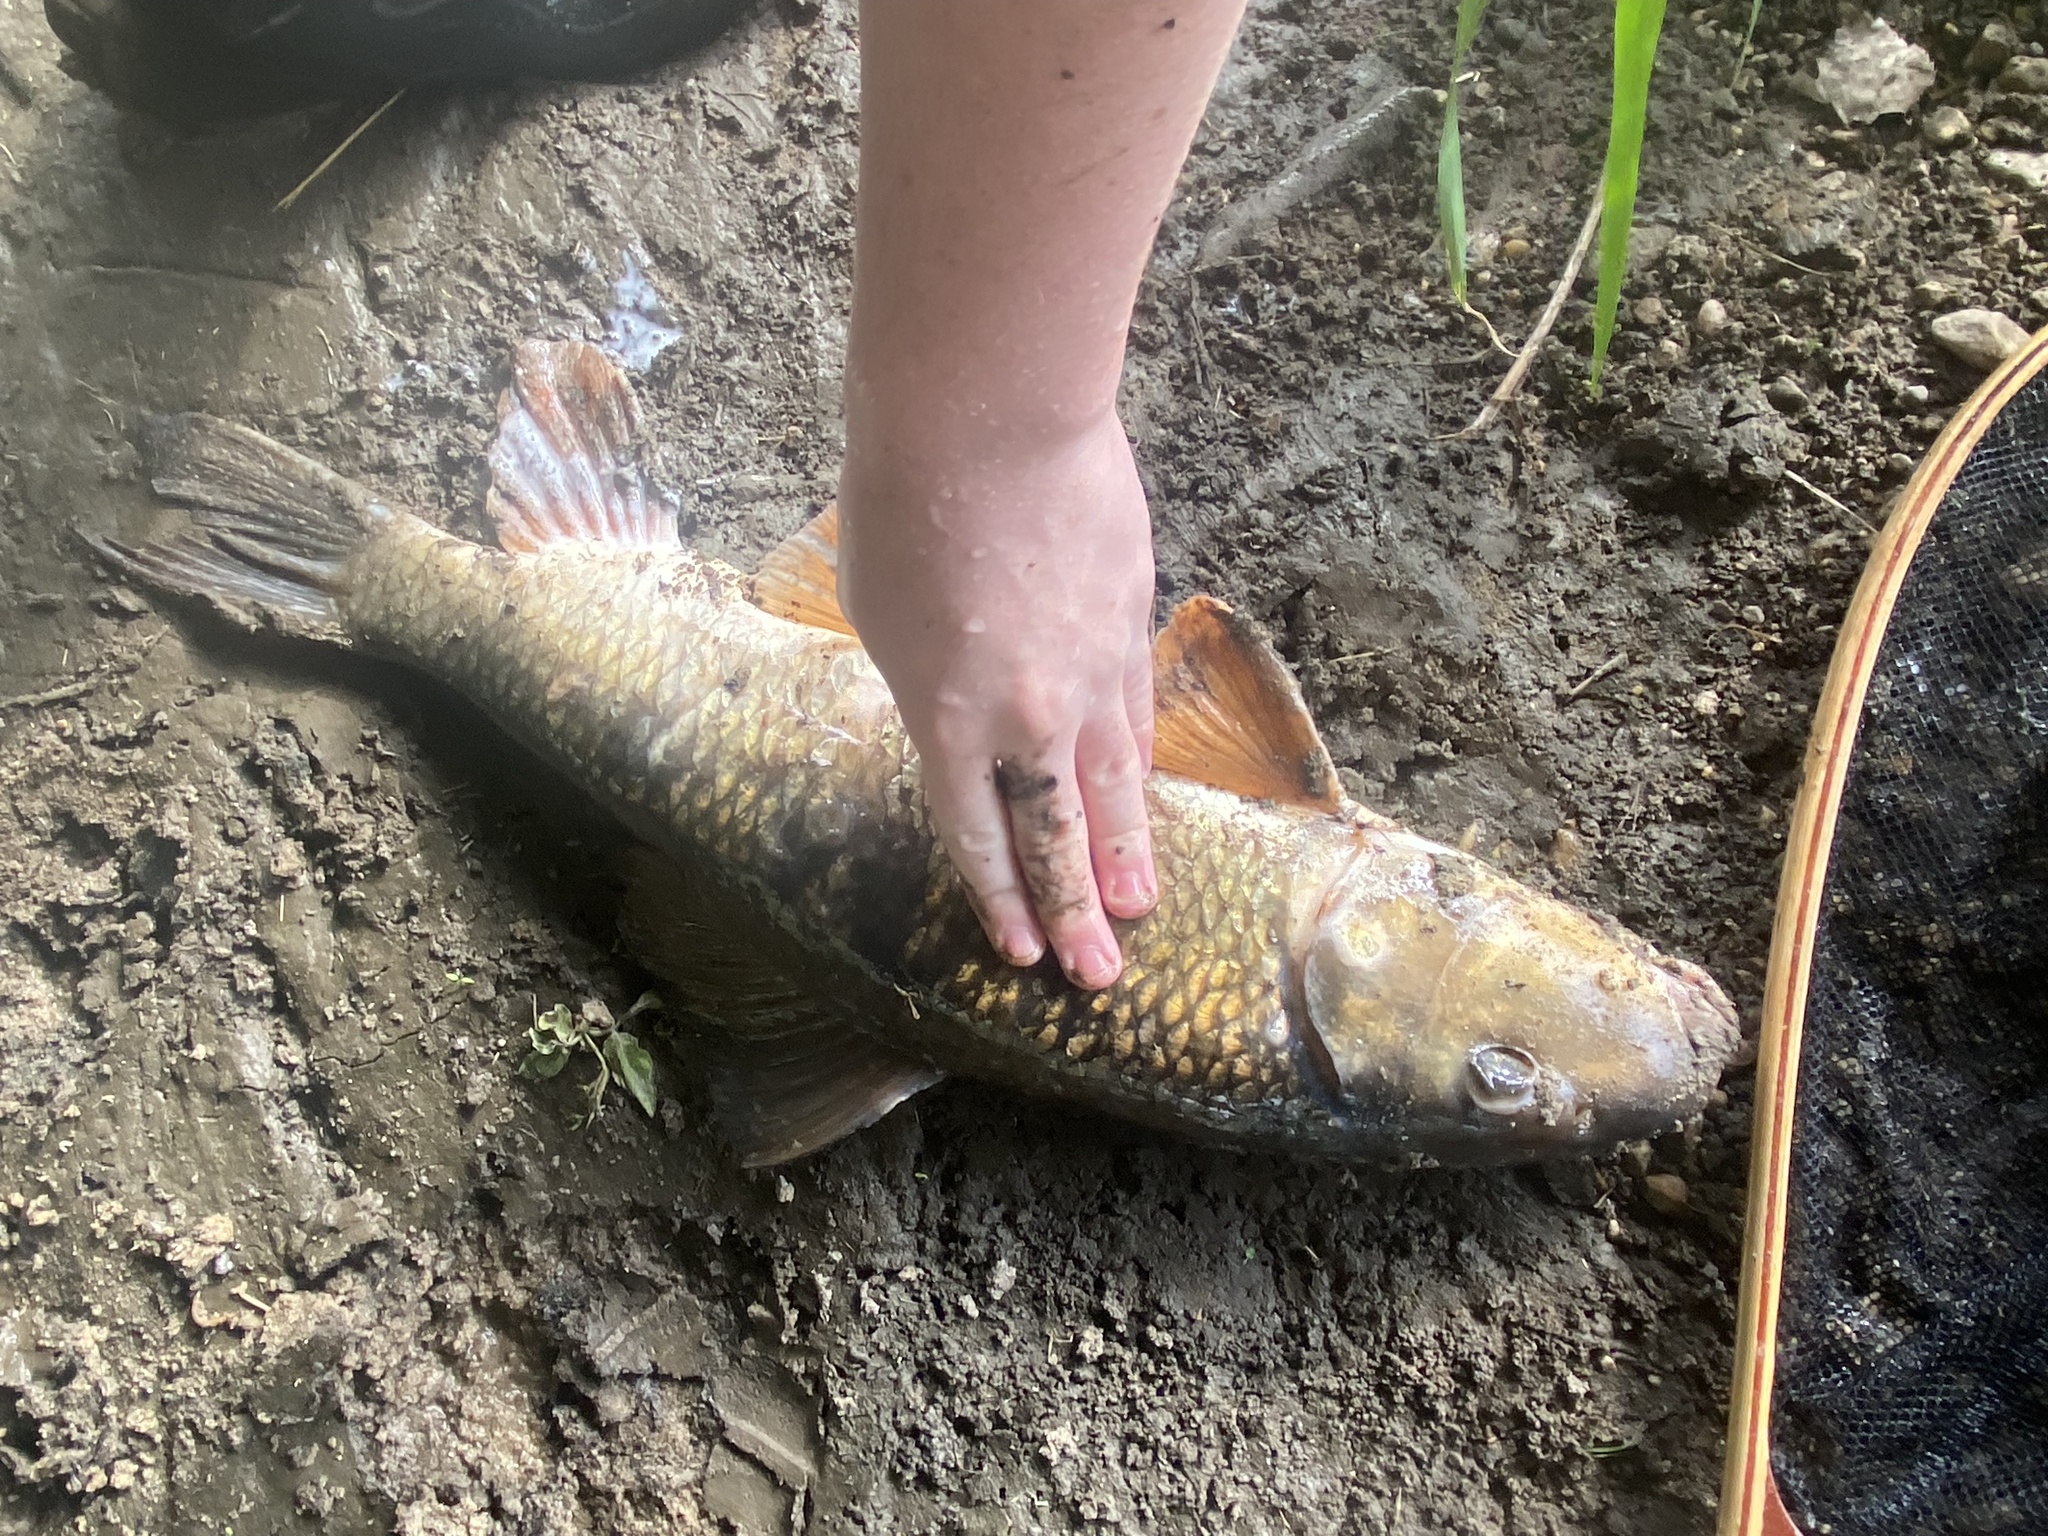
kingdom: Animalia
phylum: Chordata
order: Cypriniformes
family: Catostomidae
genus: Moxostoma
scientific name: Moxostoma anisurum
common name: Silver redhorse
